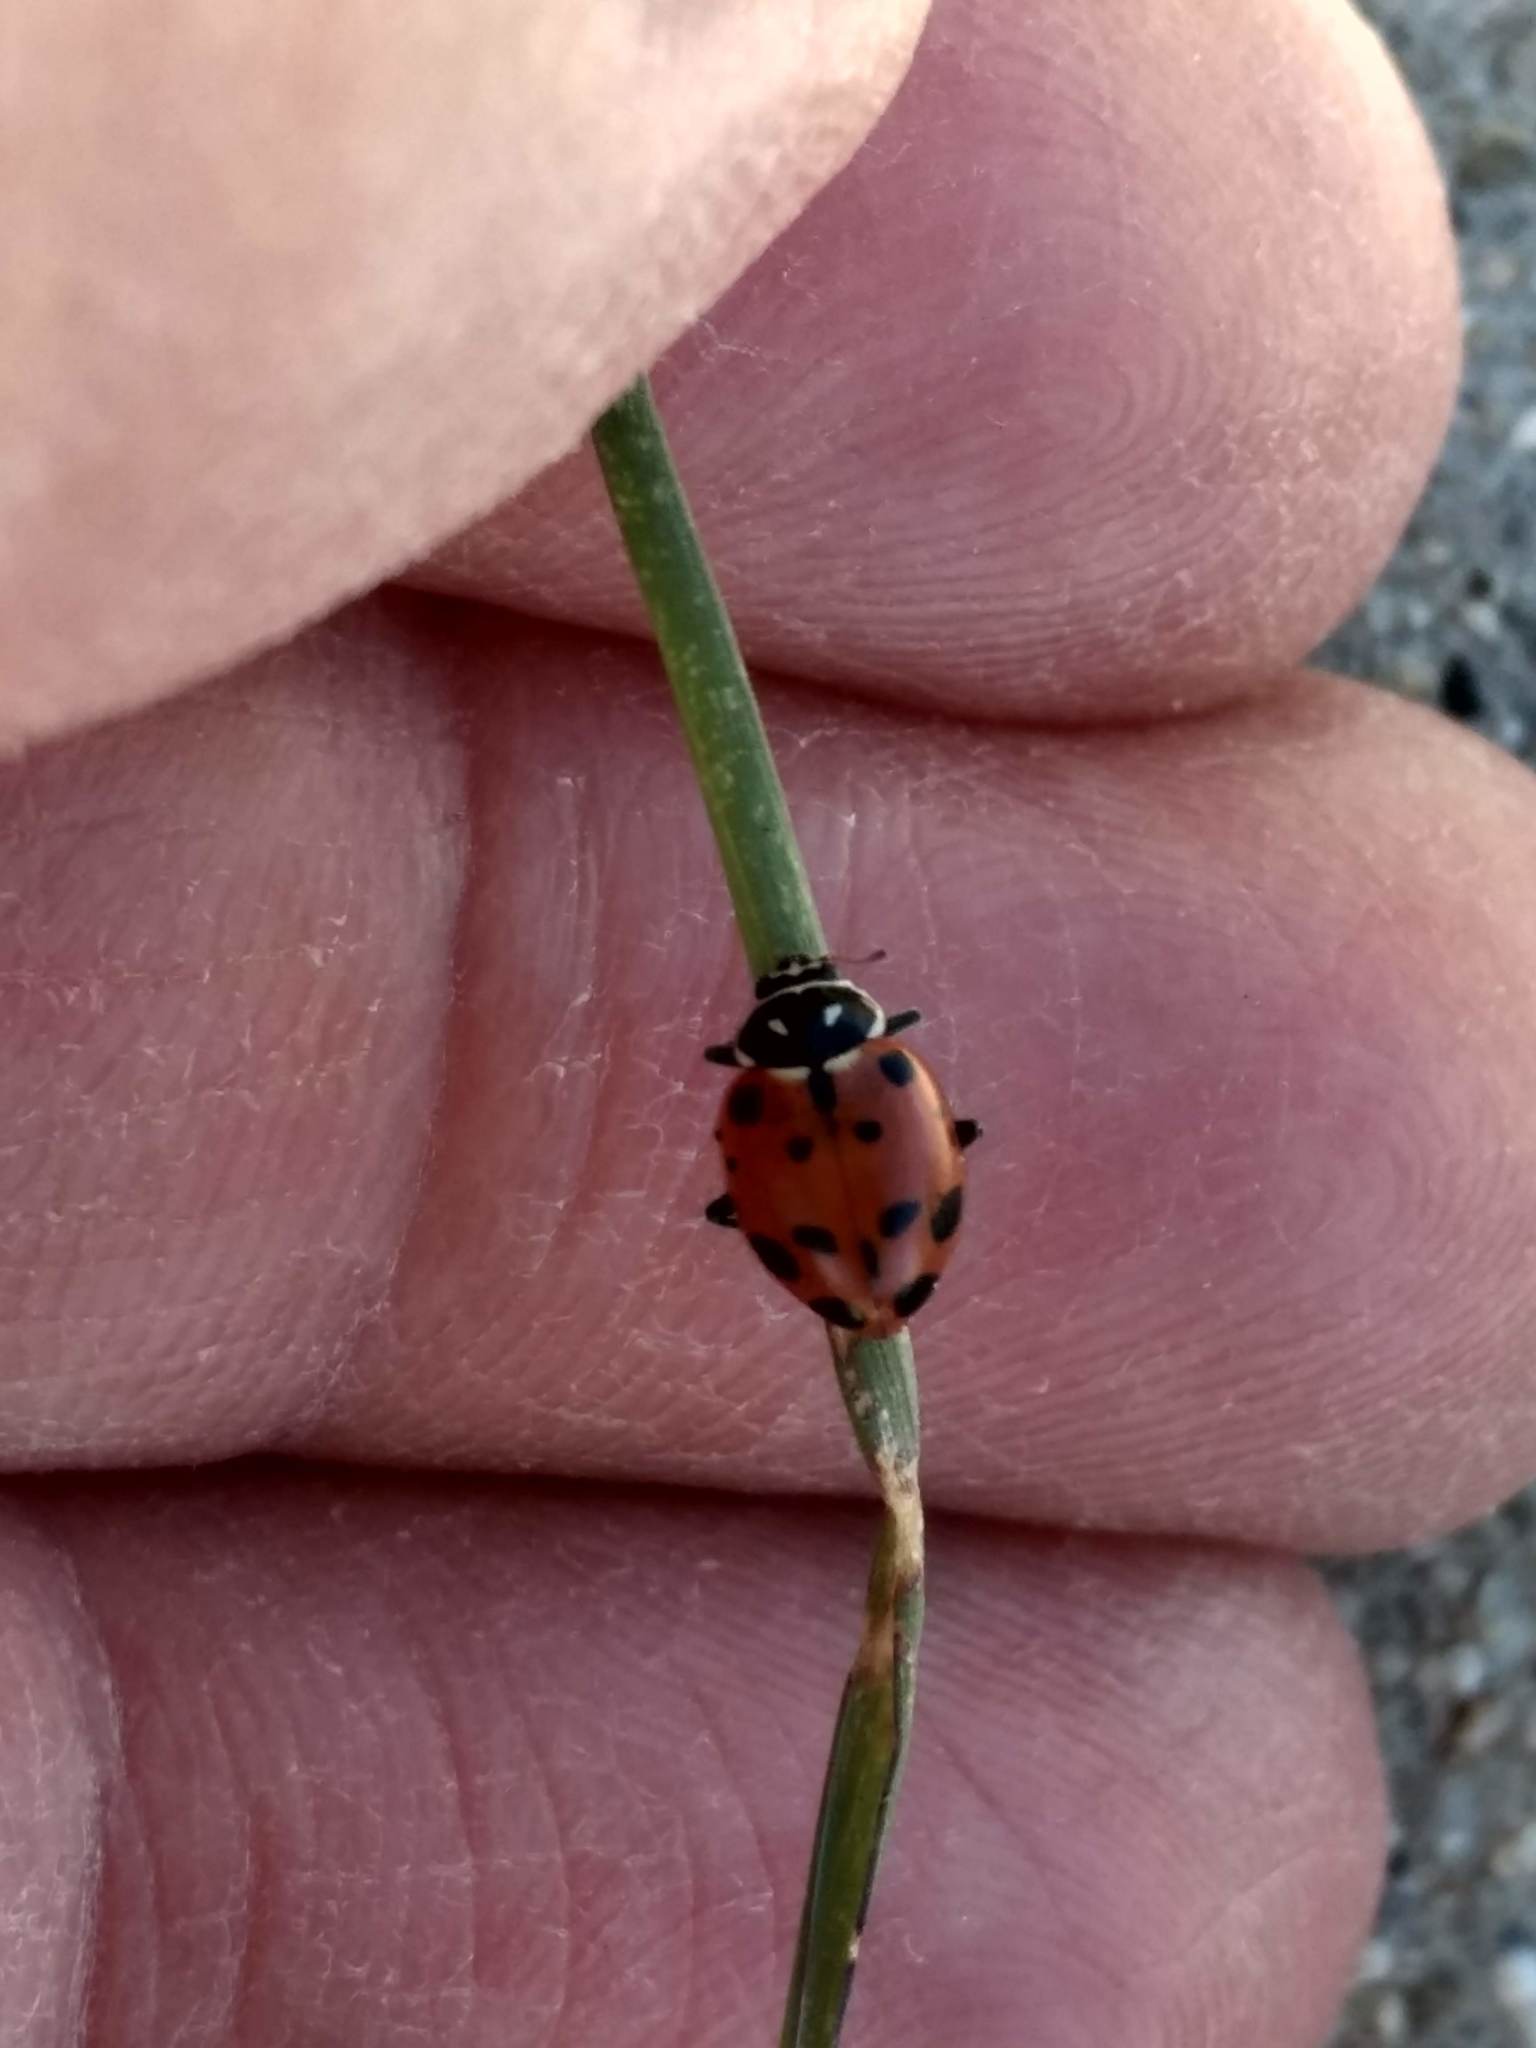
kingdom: Animalia
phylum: Arthropoda
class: Insecta
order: Coleoptera
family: Coccinellidae
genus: Hippodamia
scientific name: Hippodamia convergens
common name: Convergent lady beetle
